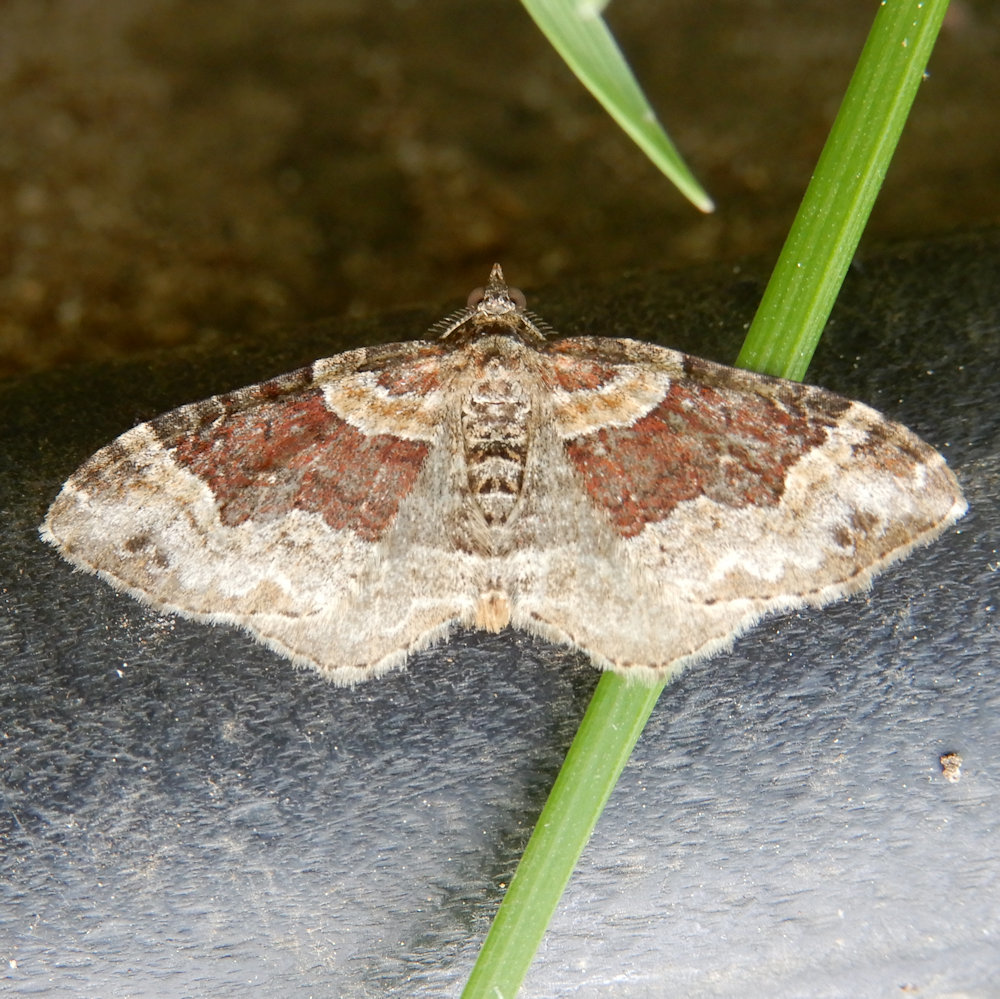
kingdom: Animalia
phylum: Arthropoda
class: Insecta
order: Lepidoptera
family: Geometridae
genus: Xanthorhoe
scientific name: Xanthorhoe ferrugata
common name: Dark-barred twin-spot carpet
